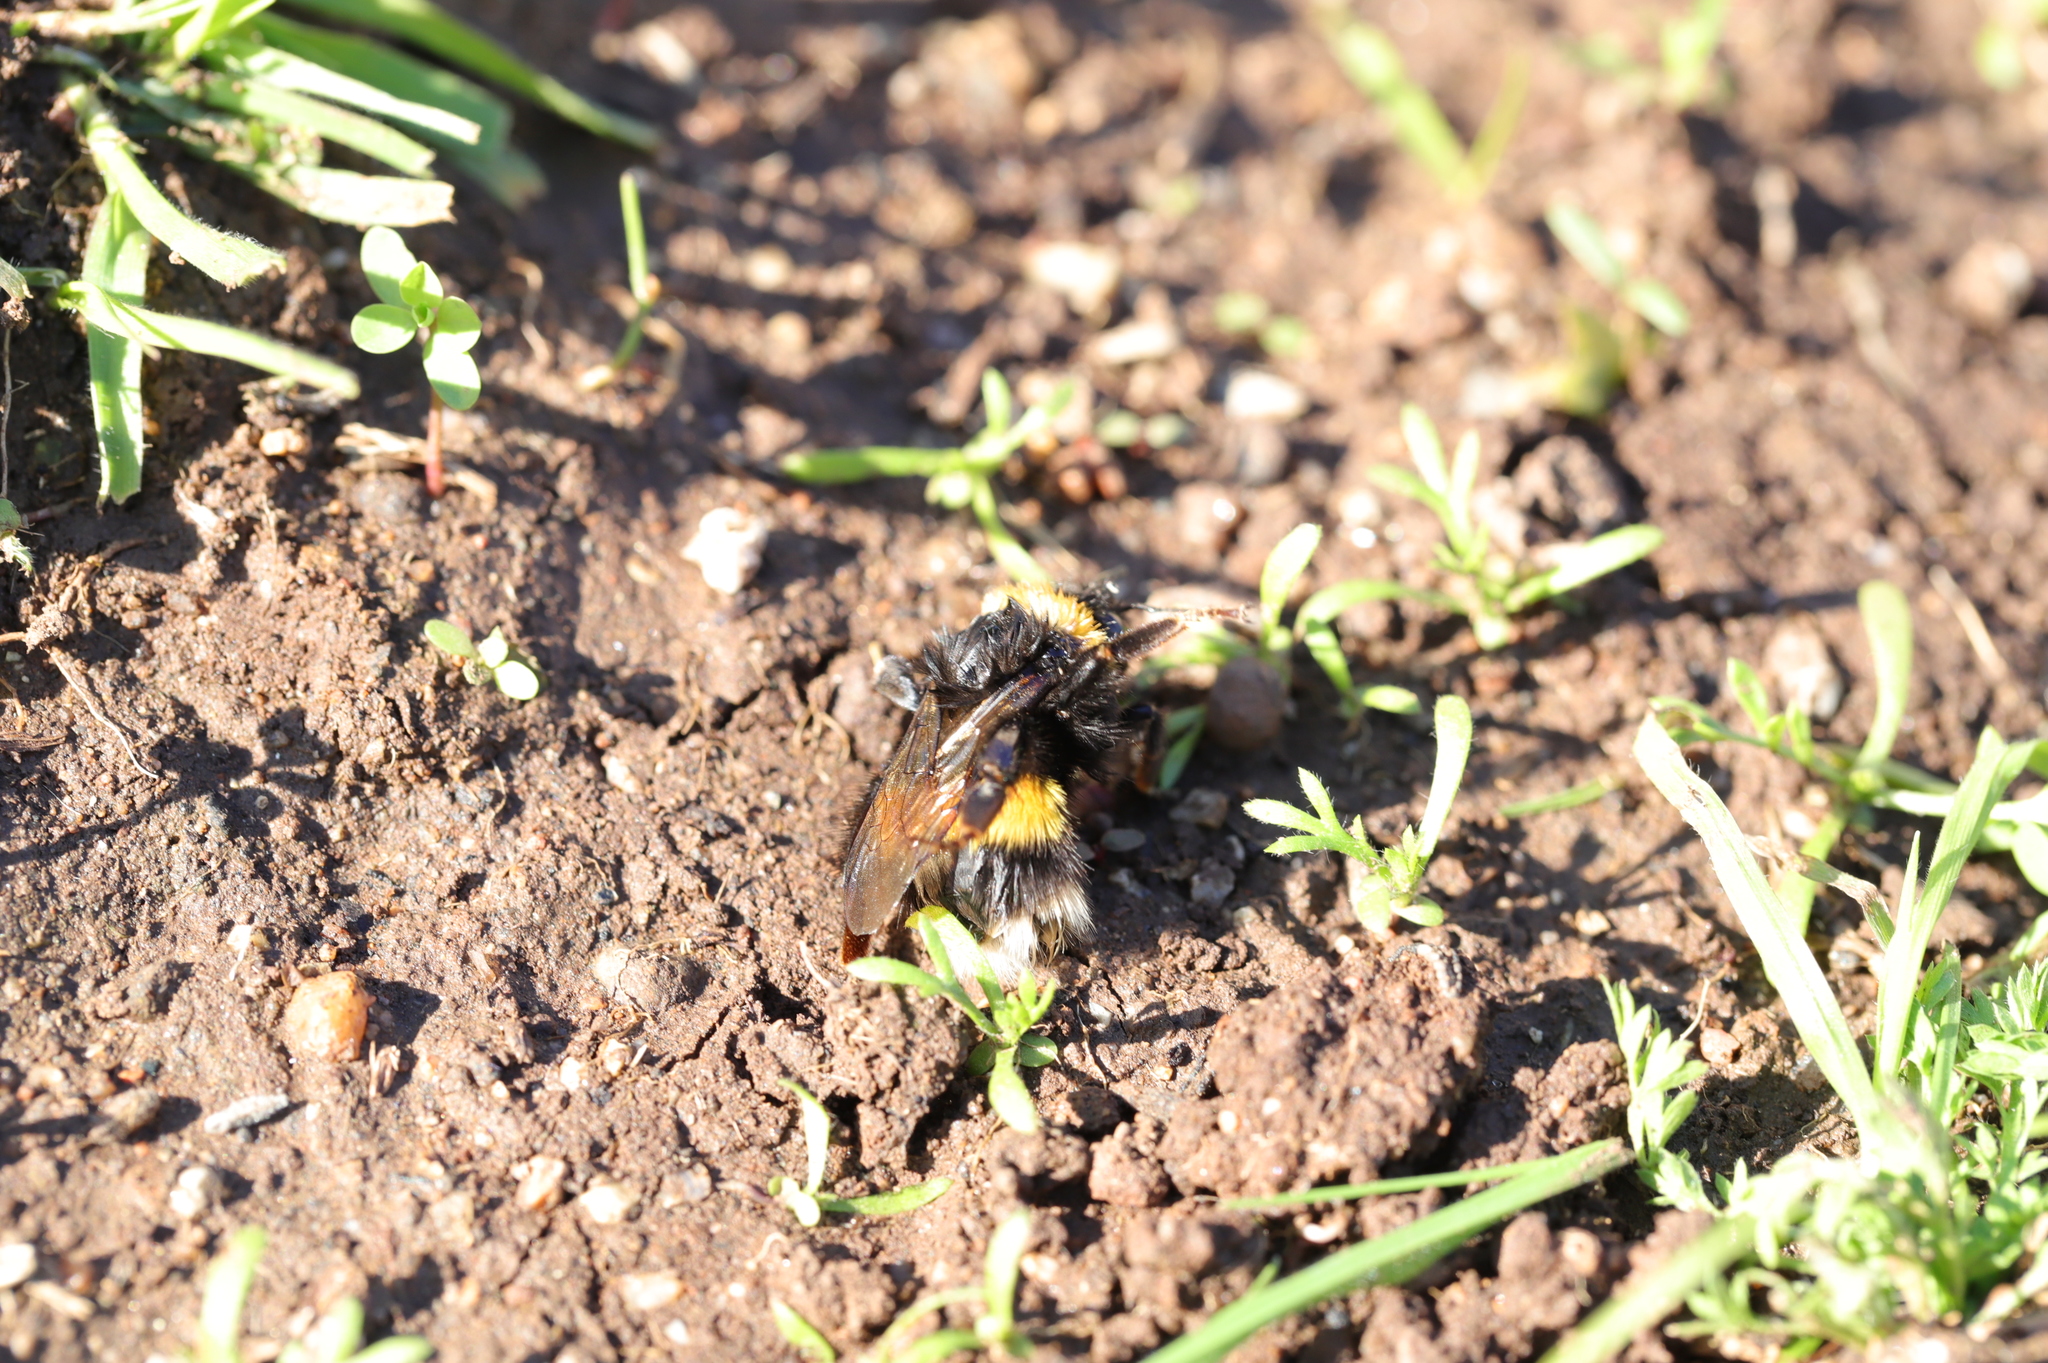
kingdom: Animalia
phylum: Arthropoda
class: Insecta
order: Hymenoptera
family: Apidae
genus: Bombus
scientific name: Bombus terrestris
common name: Buff-tailed bumblebee
